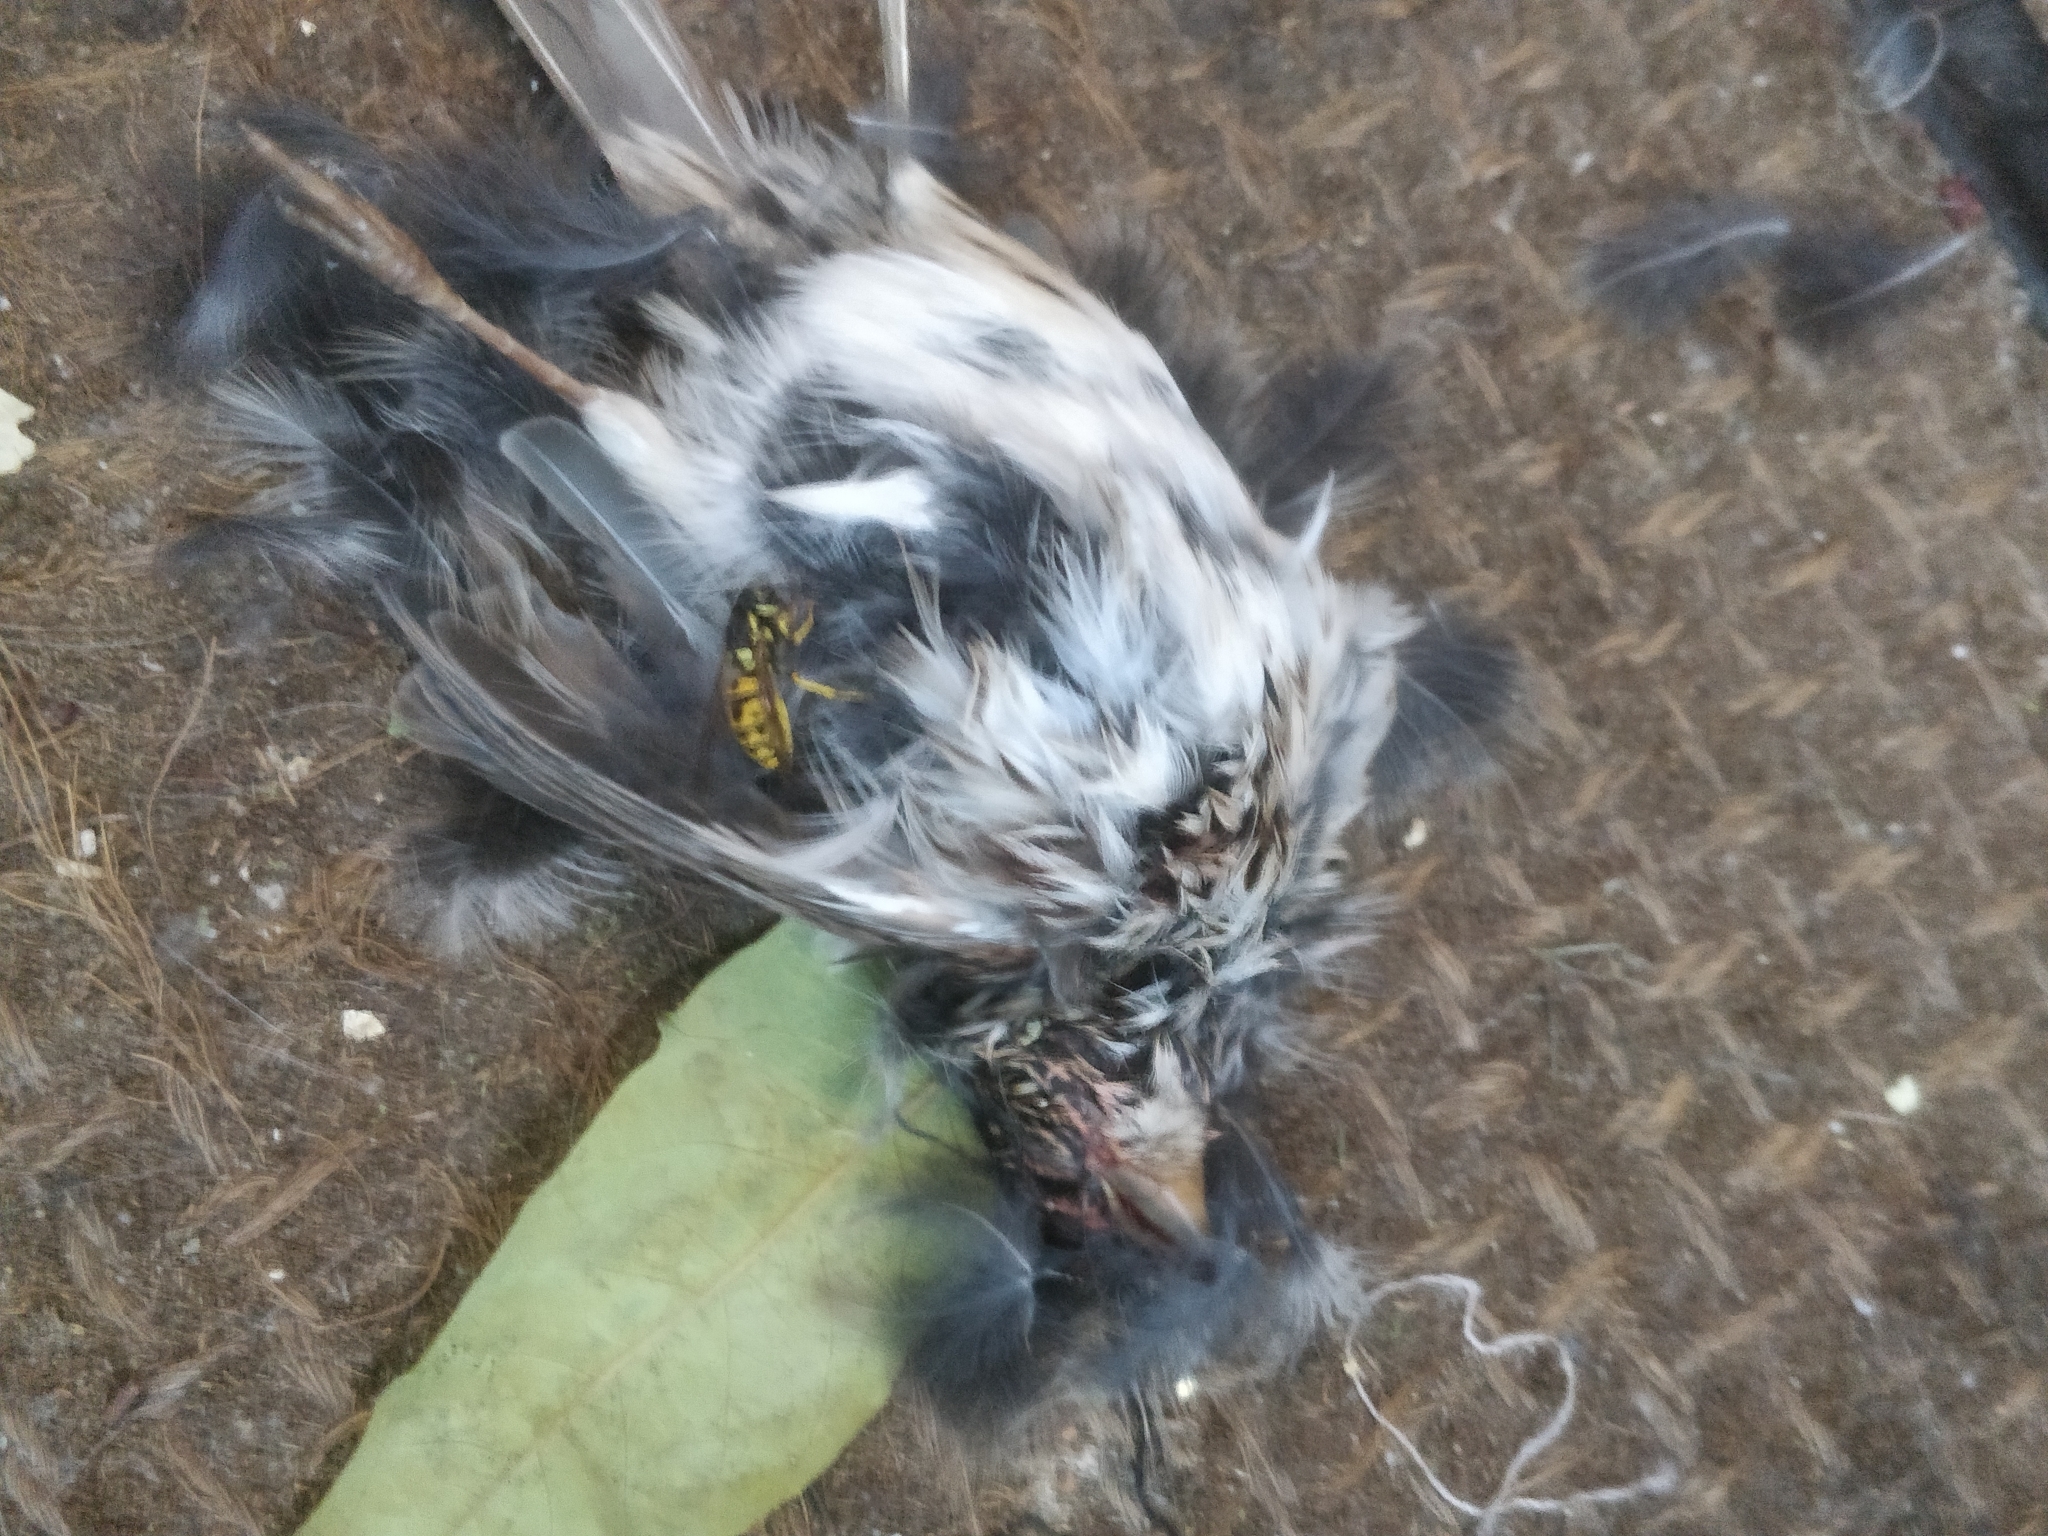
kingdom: Animalia
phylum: Arthropoda
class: Insecta
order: Hymenoptera
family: Vespidae
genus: Vespula
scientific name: Vespula germanica
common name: German wasp
